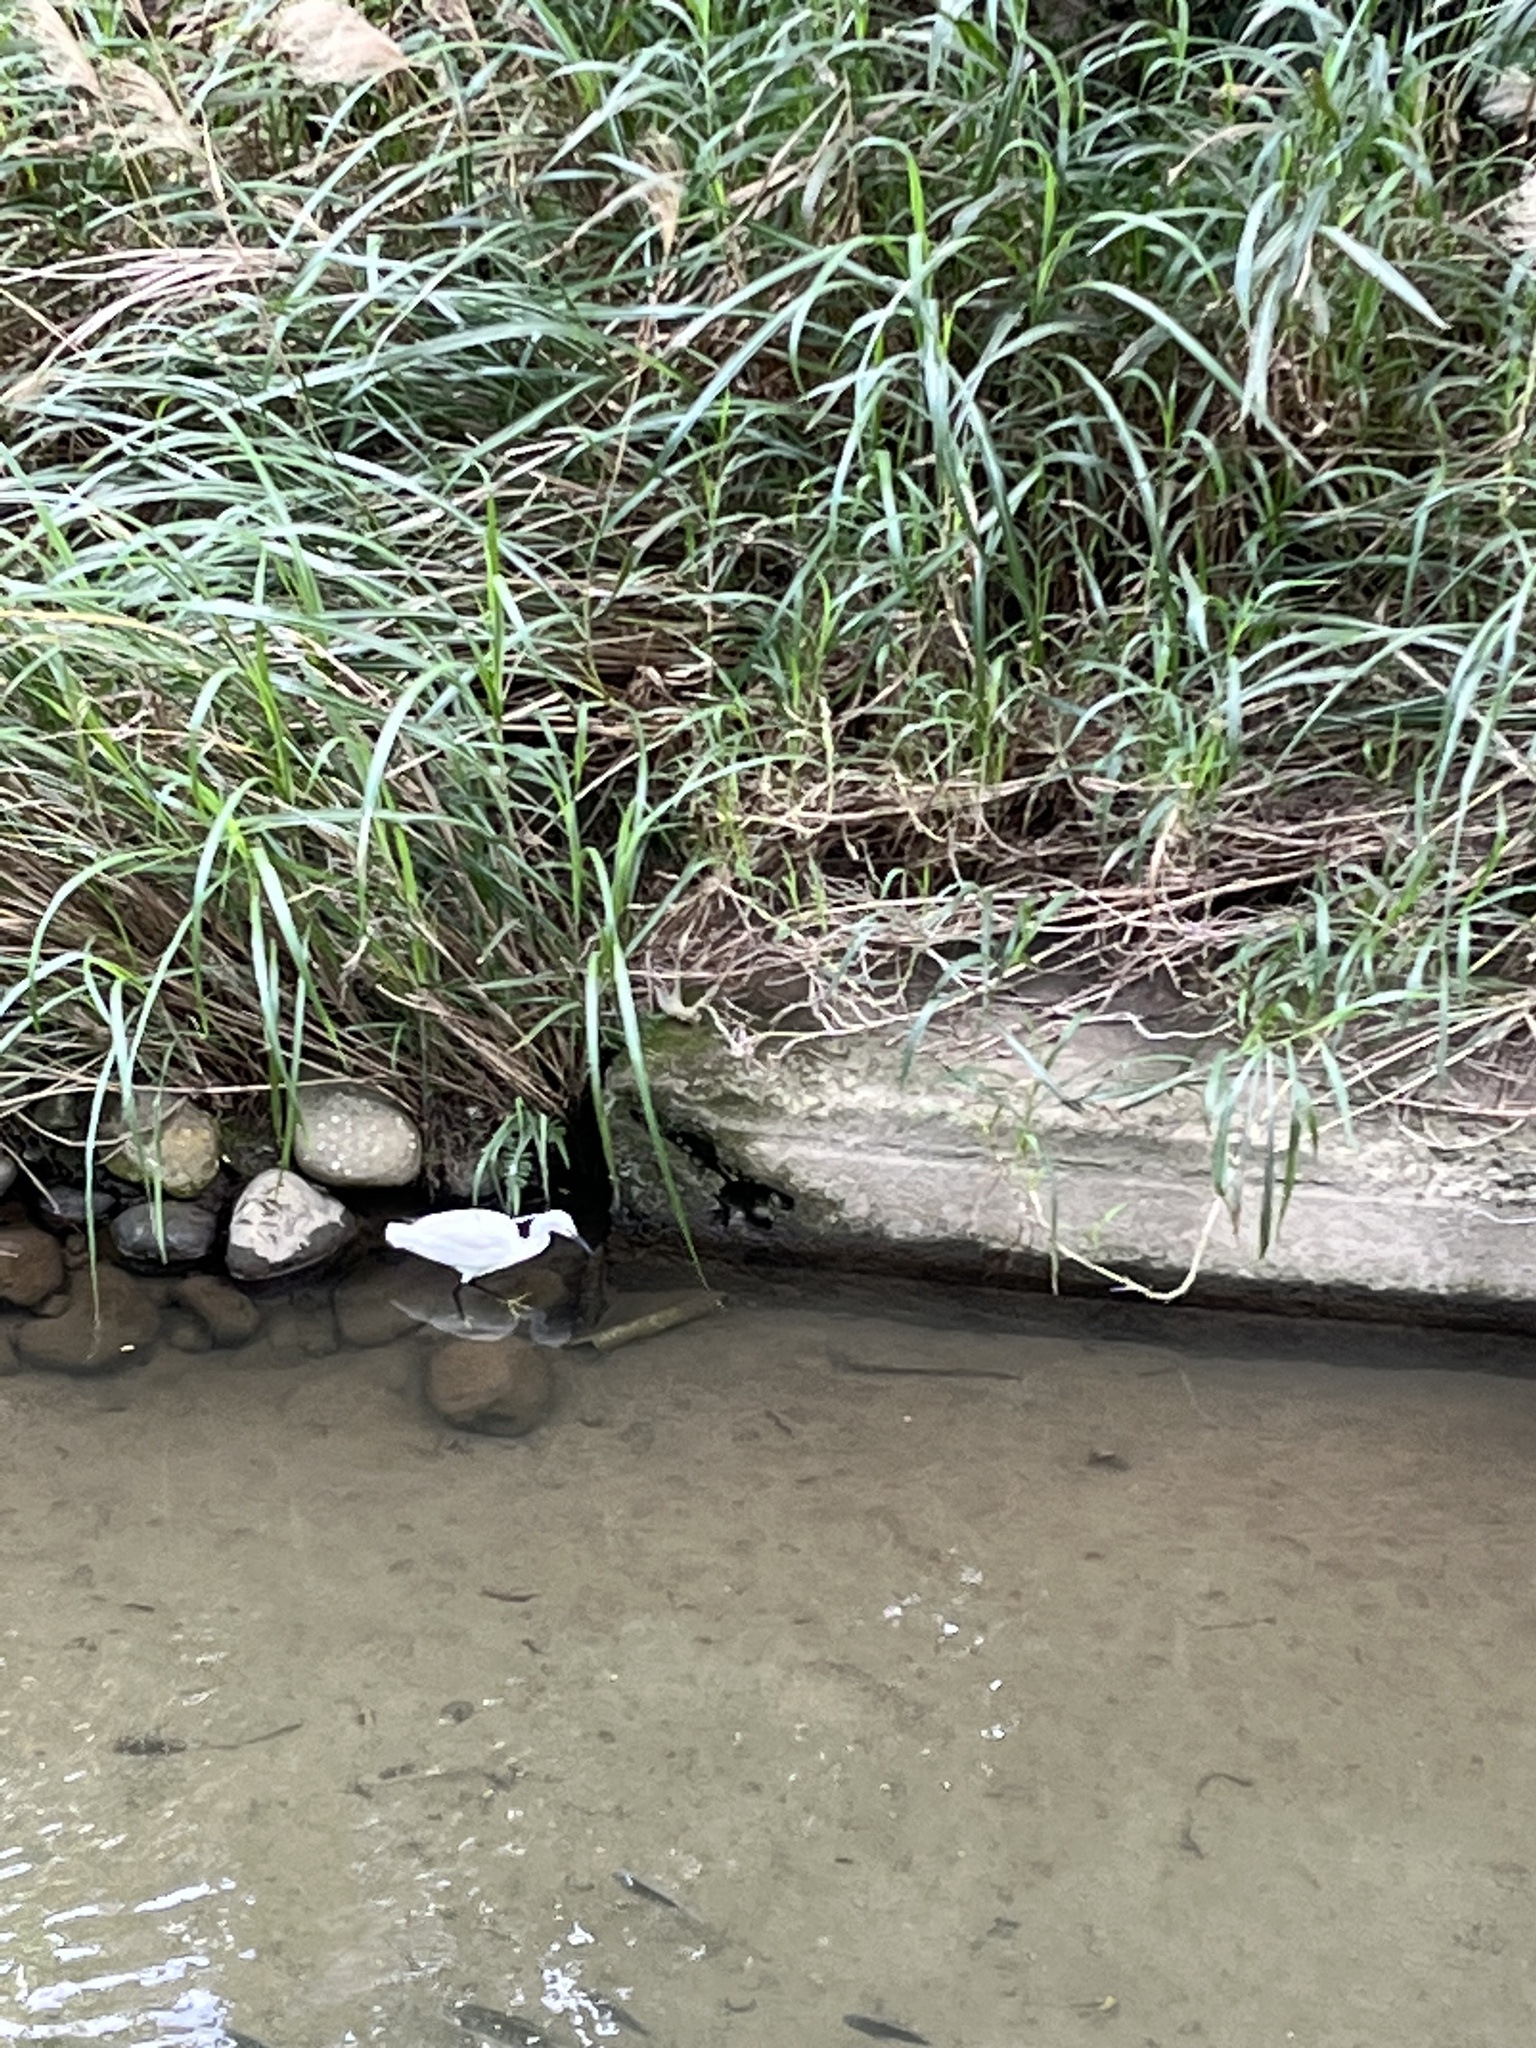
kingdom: Animalia
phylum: Chordata
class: Aves
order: Pelecaniformes
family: Ardeidae
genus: Egretta
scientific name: Egretta garzetta
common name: Little egret
